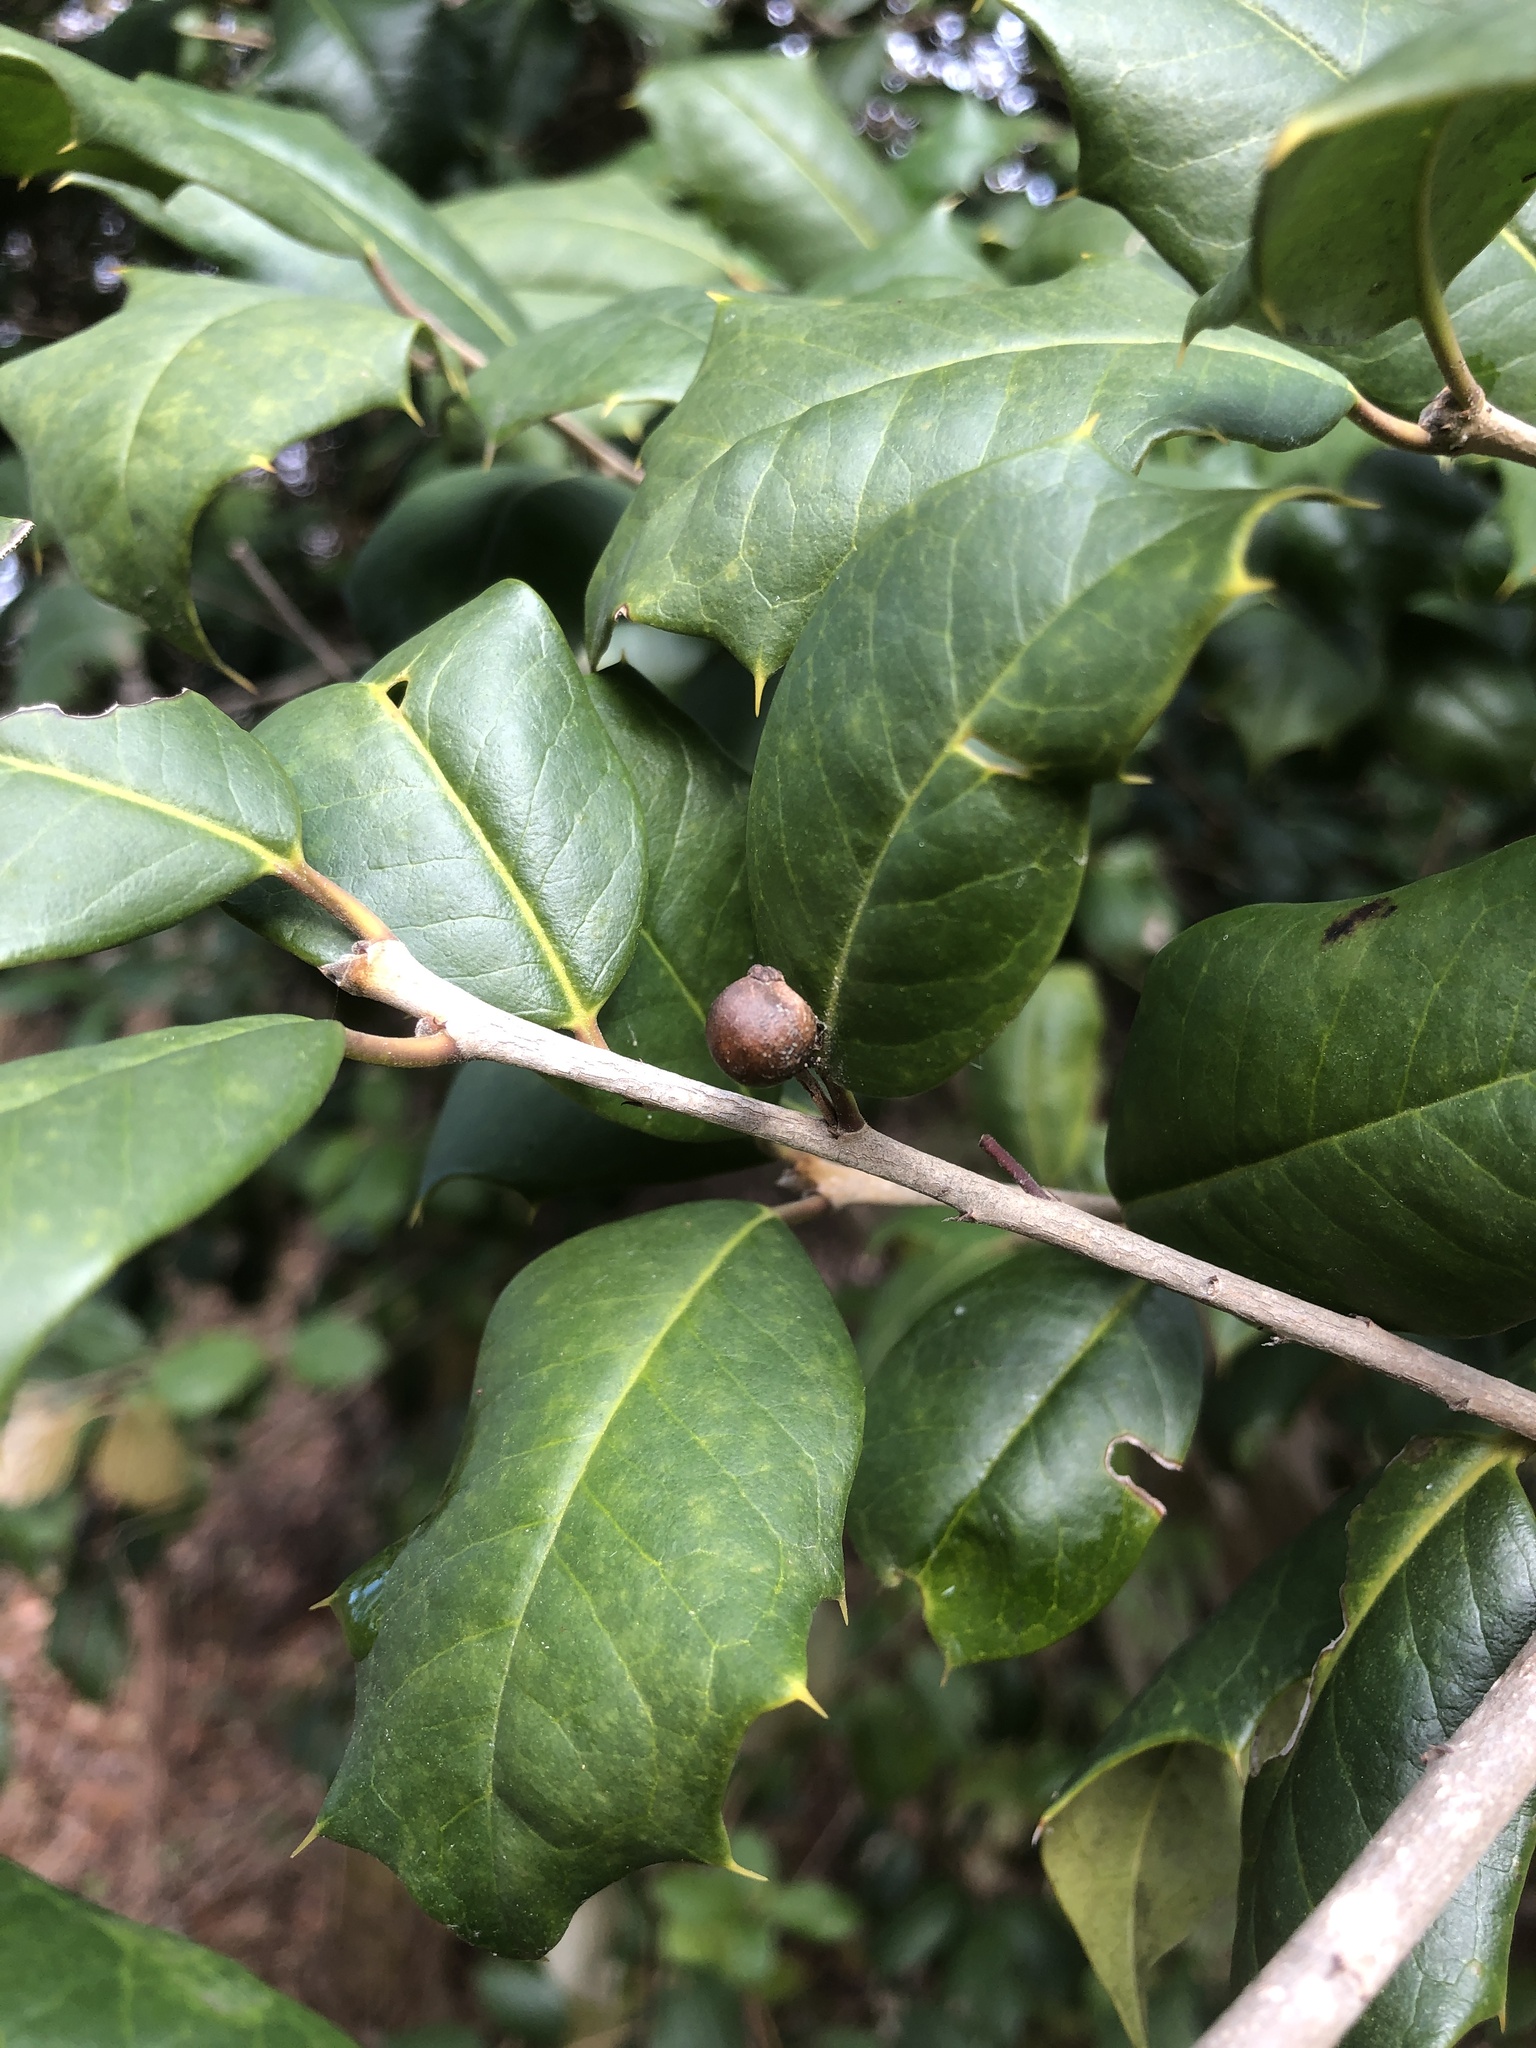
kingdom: Animalia
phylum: Arthropoda
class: Insecta
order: Diptera
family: Cecidomyiidae
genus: Asphondylia
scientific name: Asphondylia ilicicola
